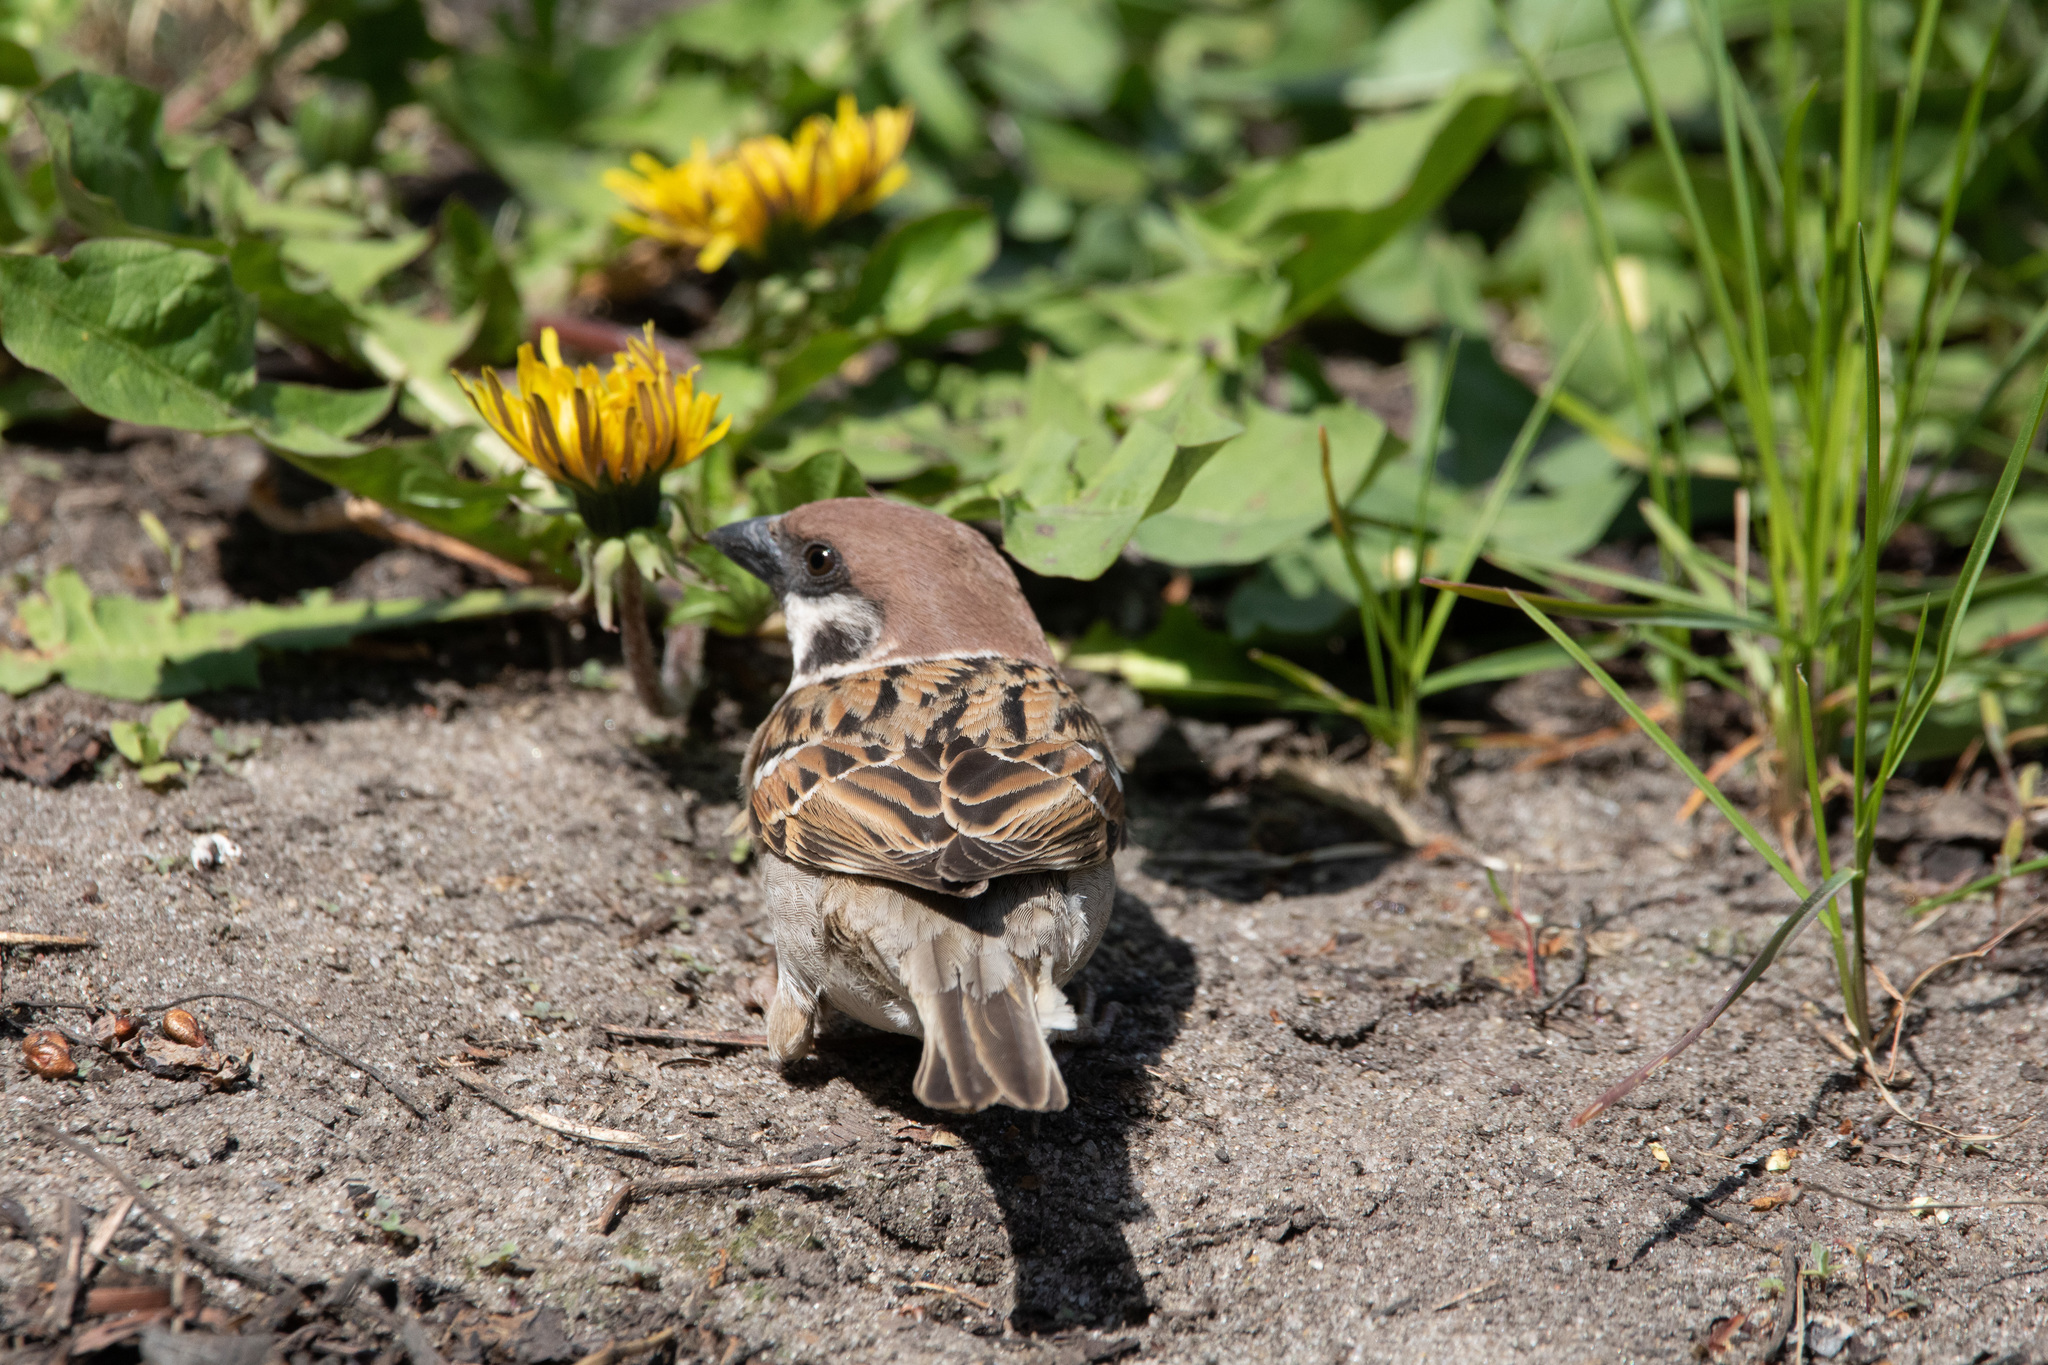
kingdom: Animalia
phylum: Chordata
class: Aves
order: Passeriformes
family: Passeridae
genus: Passer
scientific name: Passer montanus
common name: Eurasian tree sparrow
